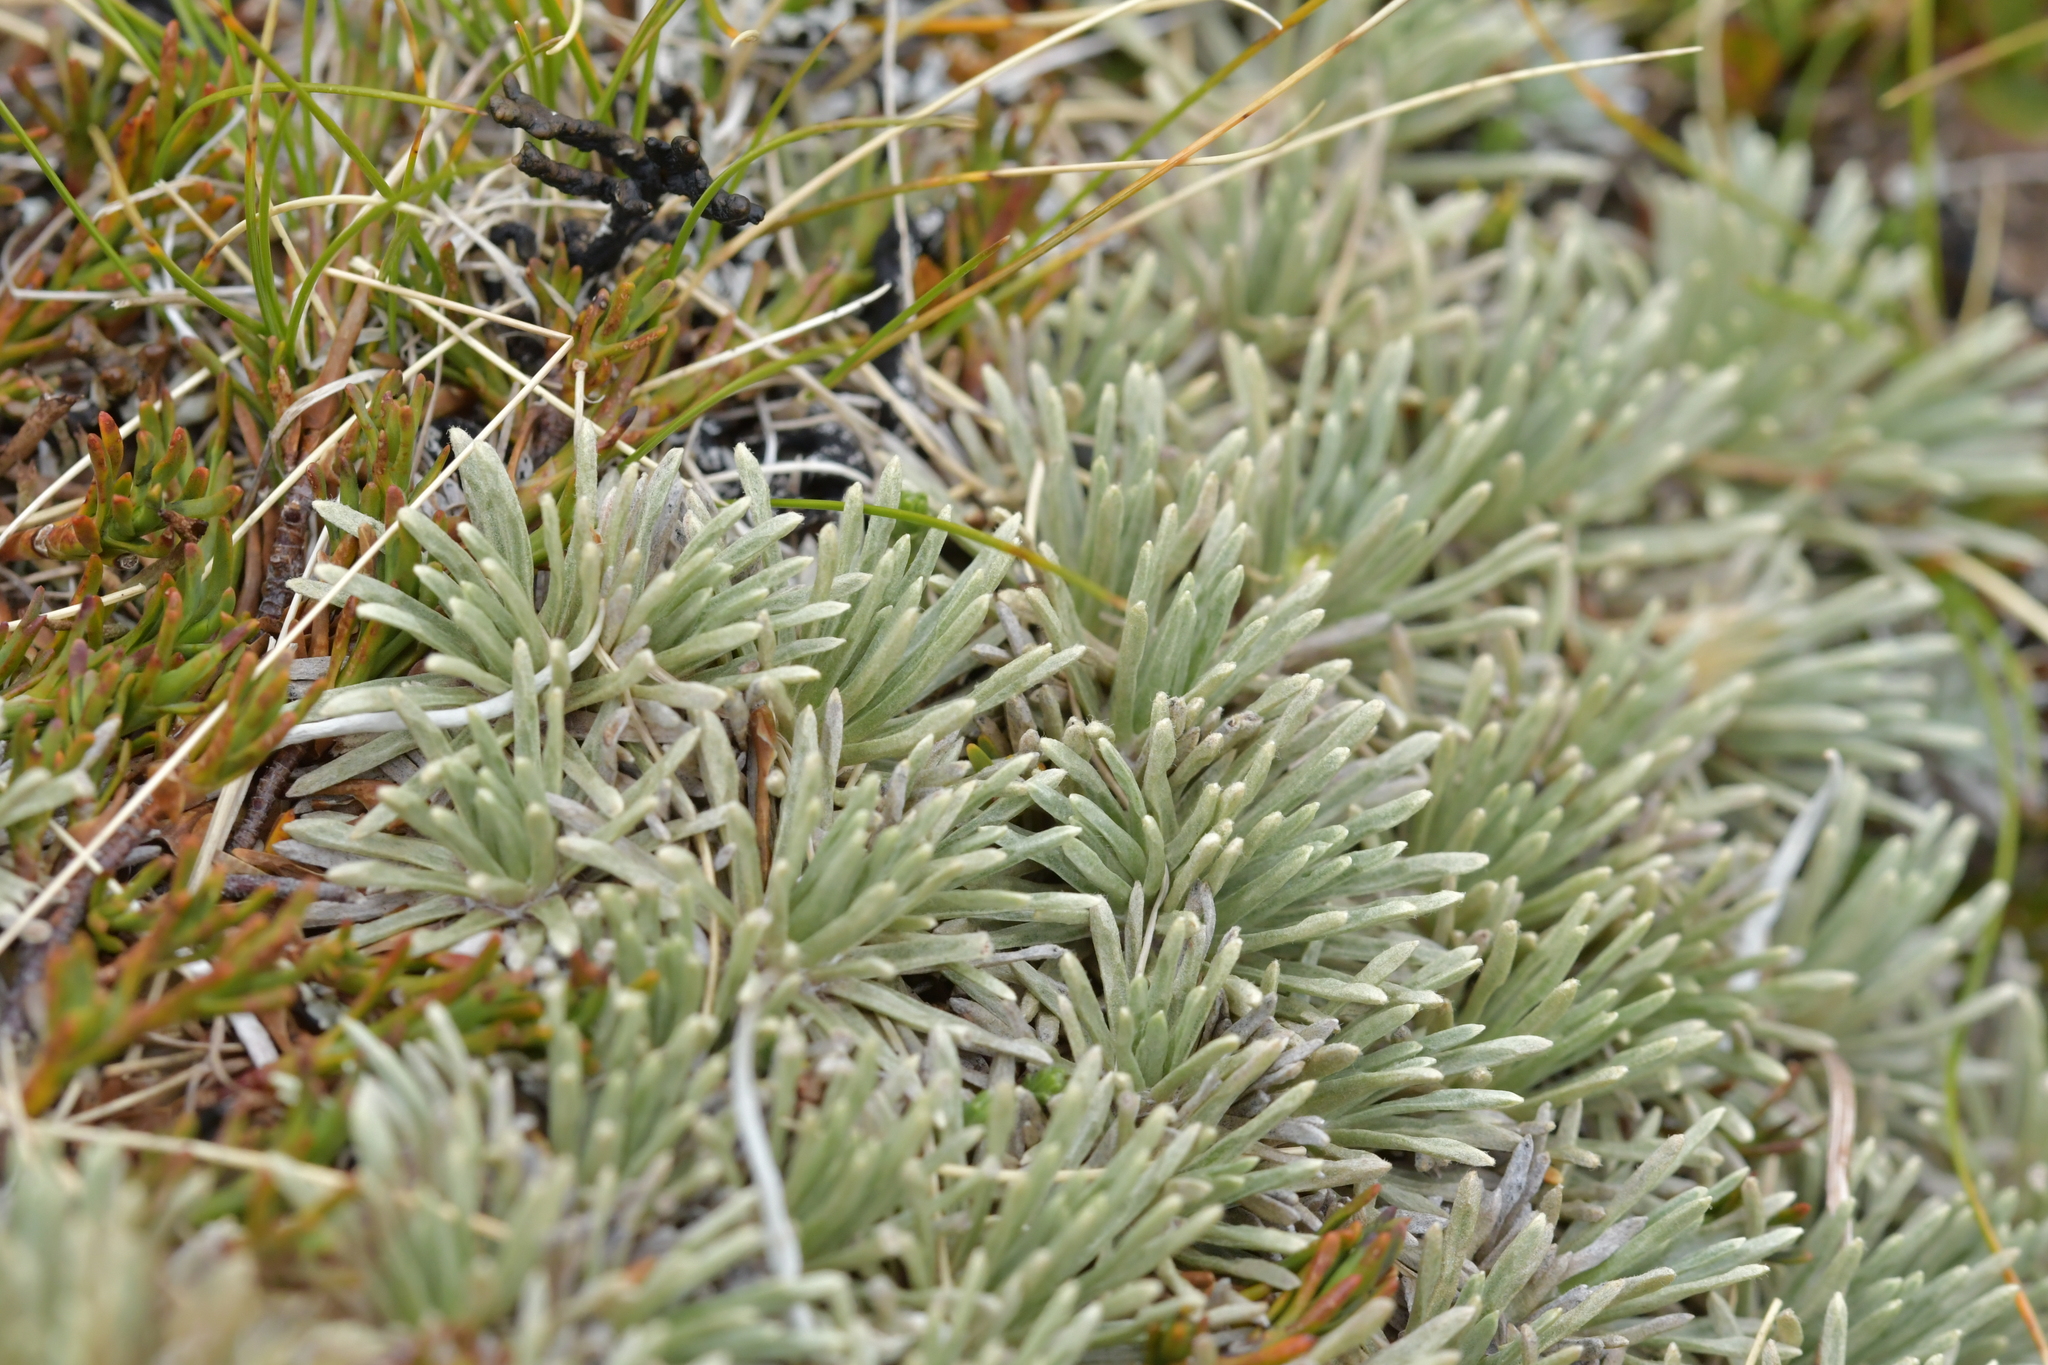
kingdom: Plantae
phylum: Tracheophyta
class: Magnoliopsida
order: Asterales
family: Asteraceae
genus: Celmisia
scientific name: Celmisia sessiliflora
